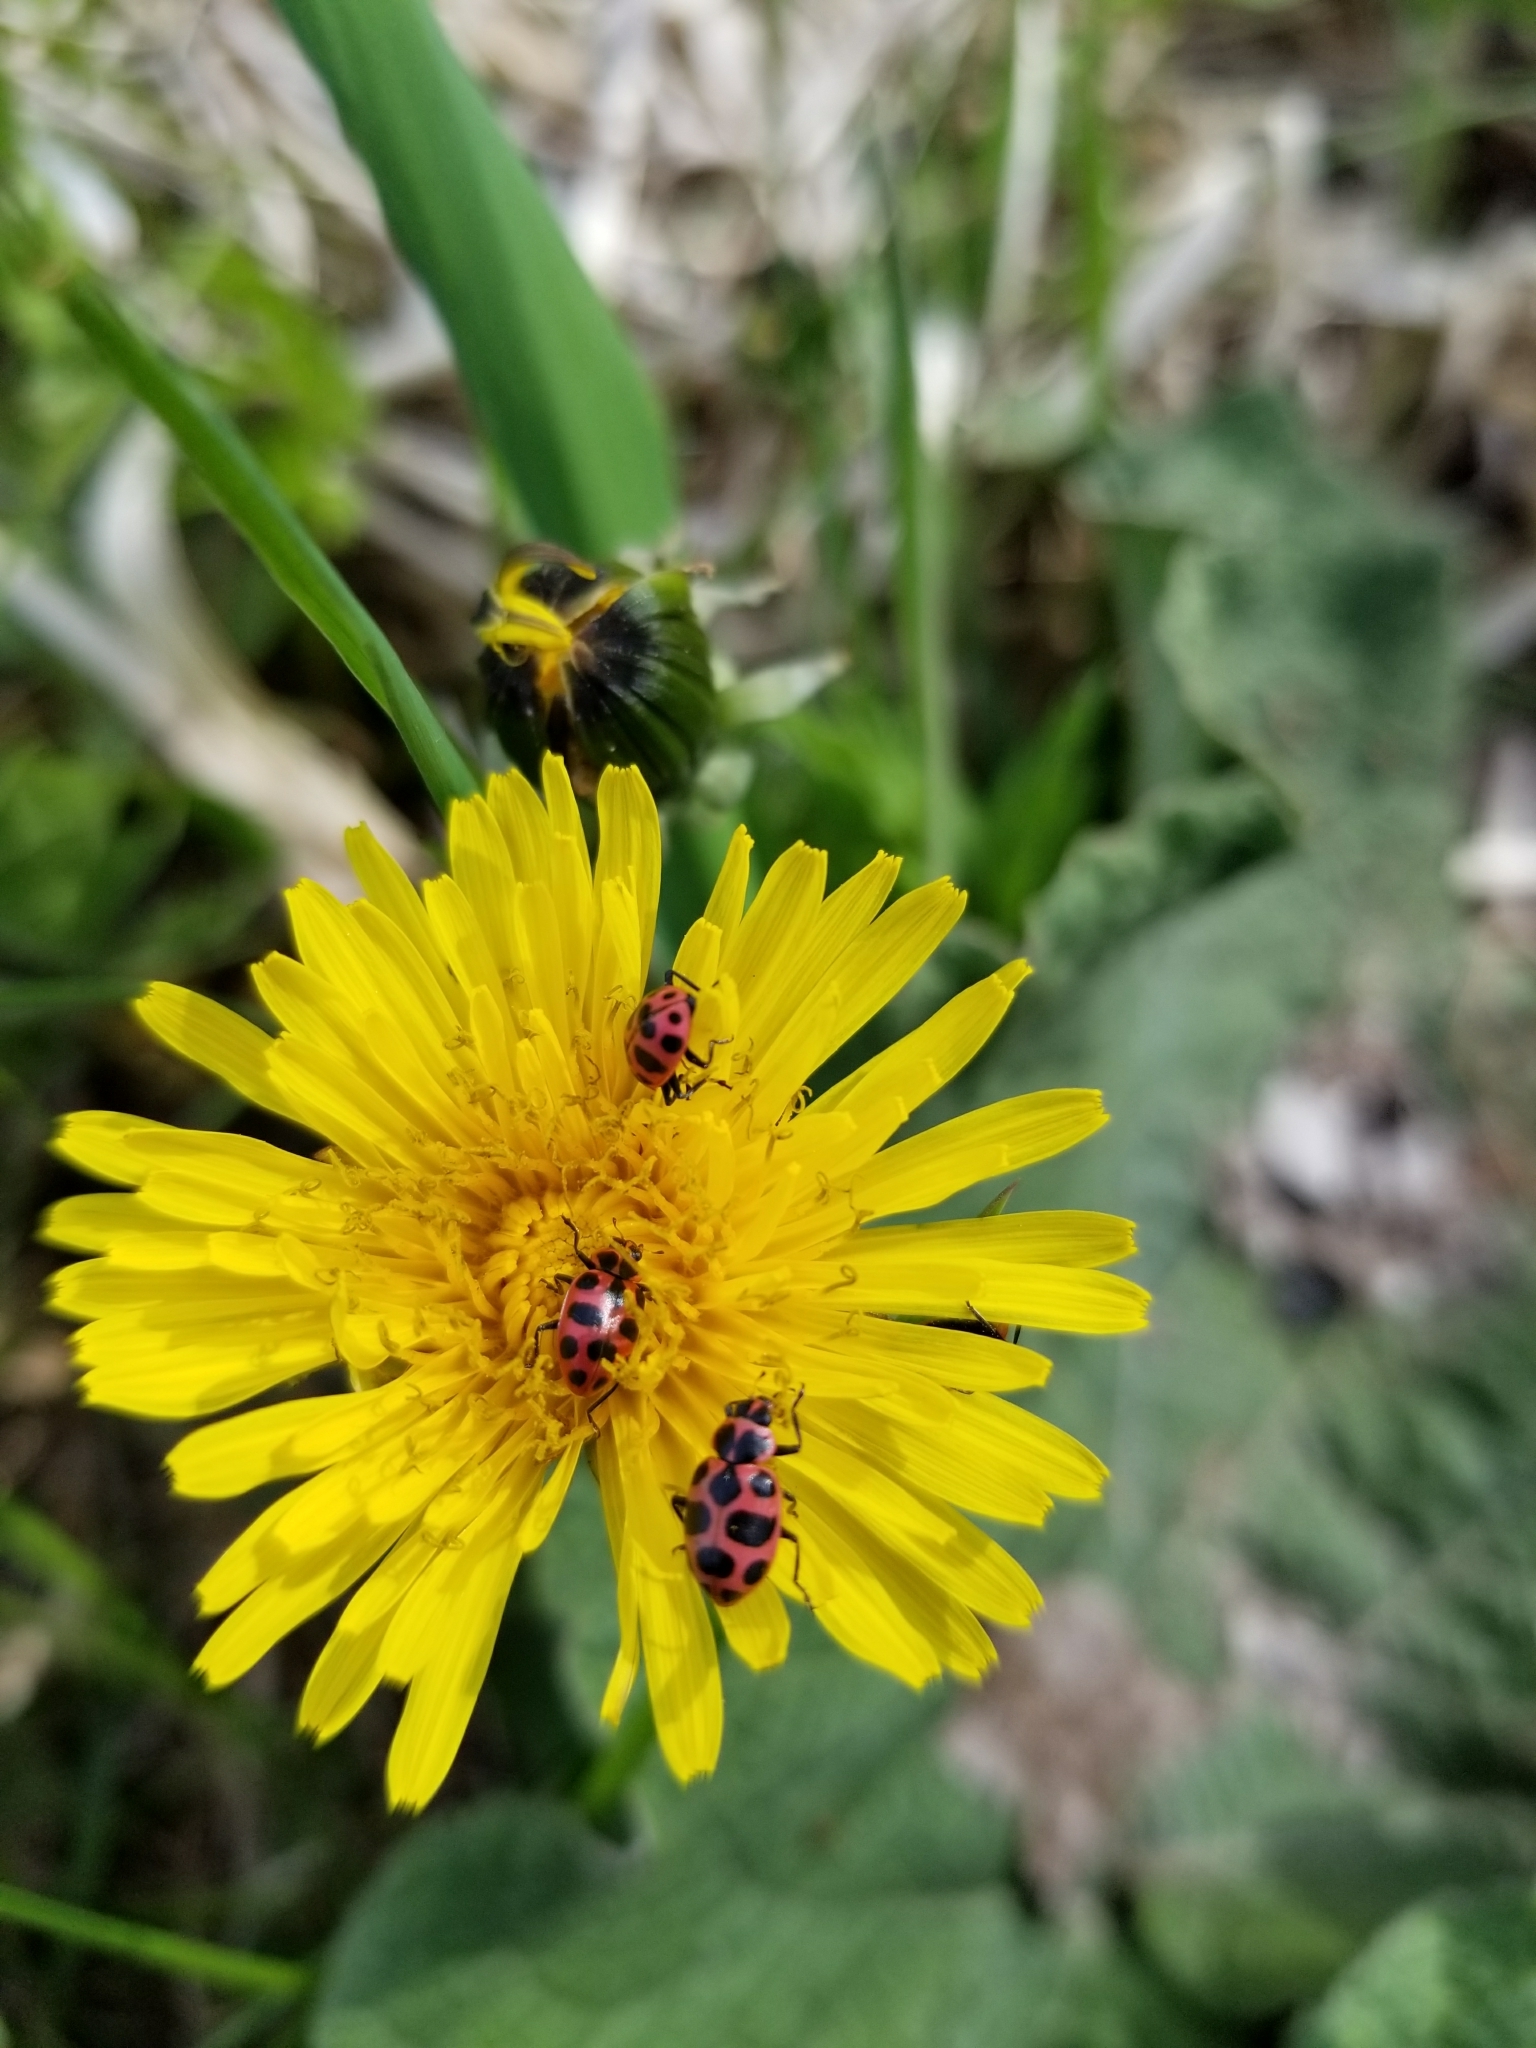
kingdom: Animalia
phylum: Arthropoda
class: Insecta
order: Coleoptera
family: Coccinellidae
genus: Coleomegilla
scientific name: Coleomegilla maculata
